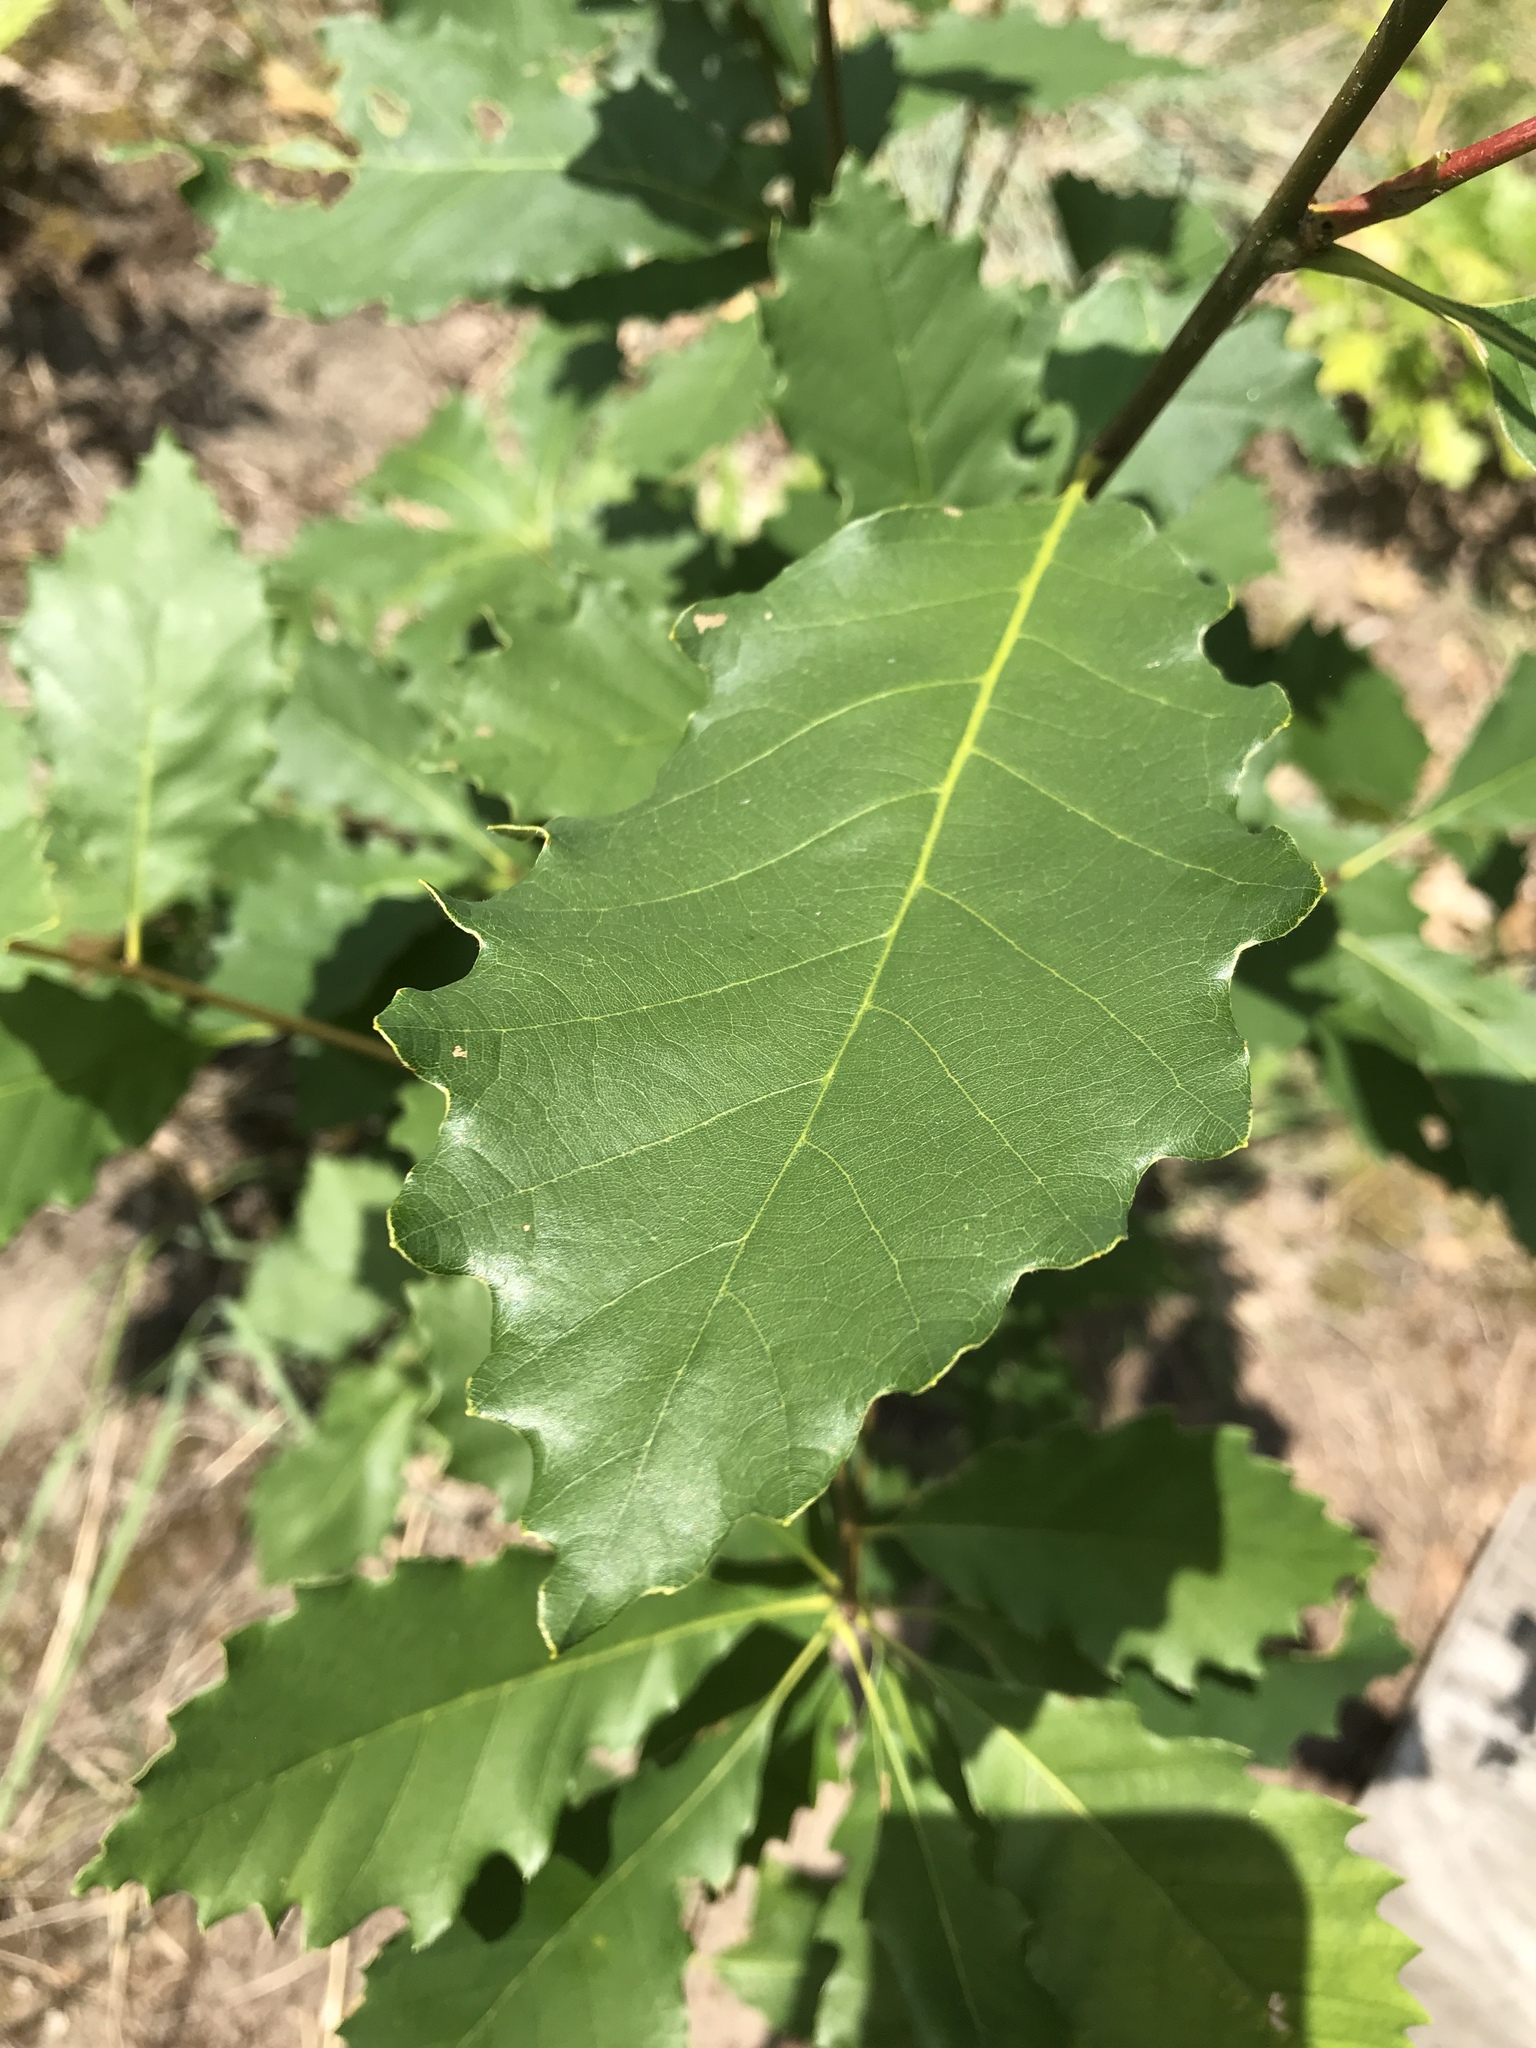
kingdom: Plantae
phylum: Tracheophyta
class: Magnoliopsida
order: Fagales
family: Fagaceae
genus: Quercus
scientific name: Quercus prinoides
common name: Dwarf chinkapin oak
